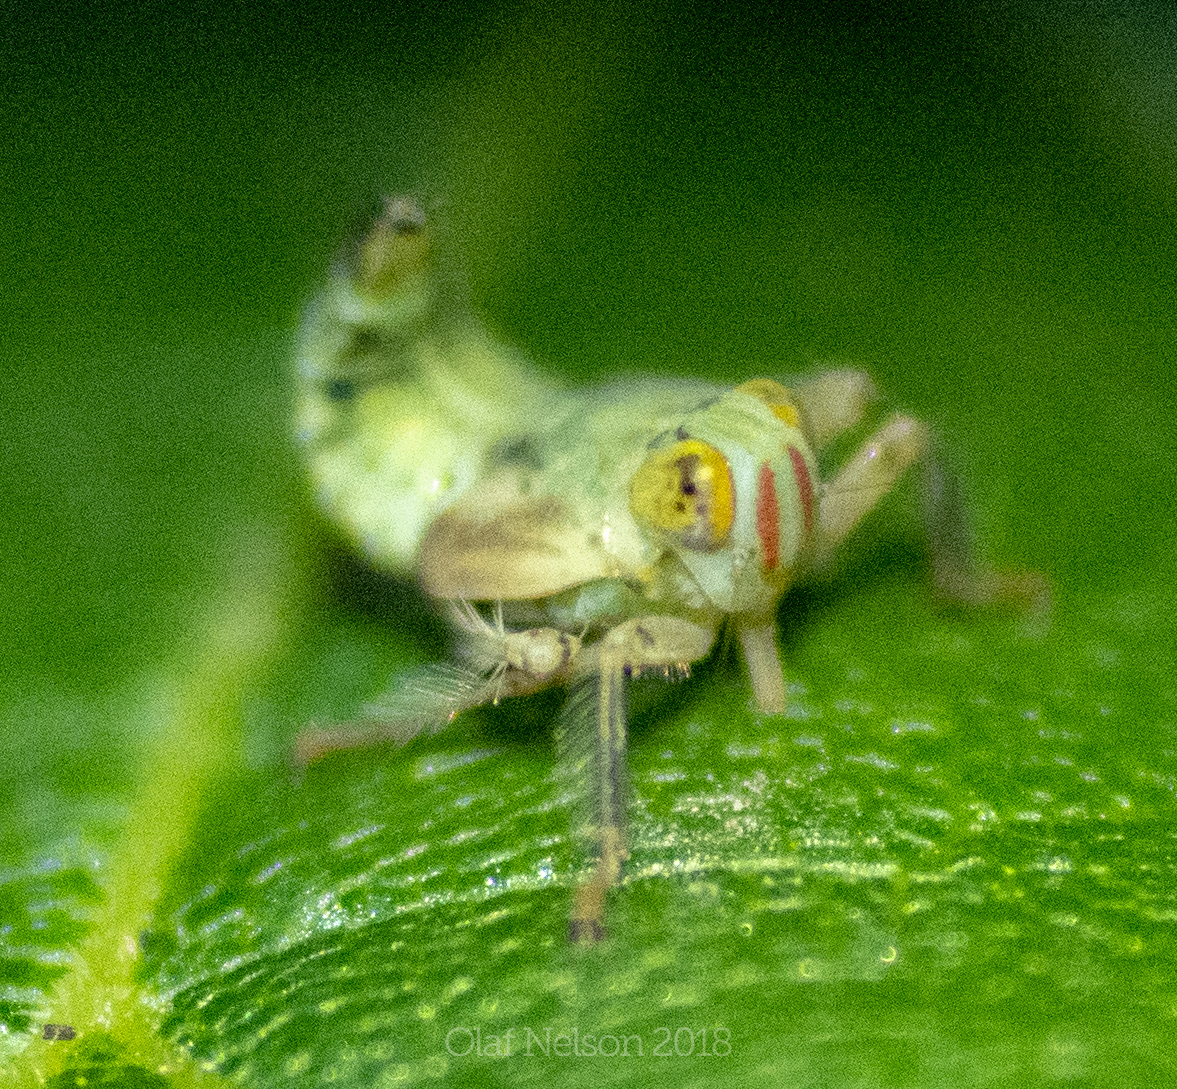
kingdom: Animalia
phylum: Arthropoda
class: Insecta
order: Hemiptera
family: Cicadellidae
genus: Jikradia
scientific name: Jikradia olitoria
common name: Coppery leafhopper
